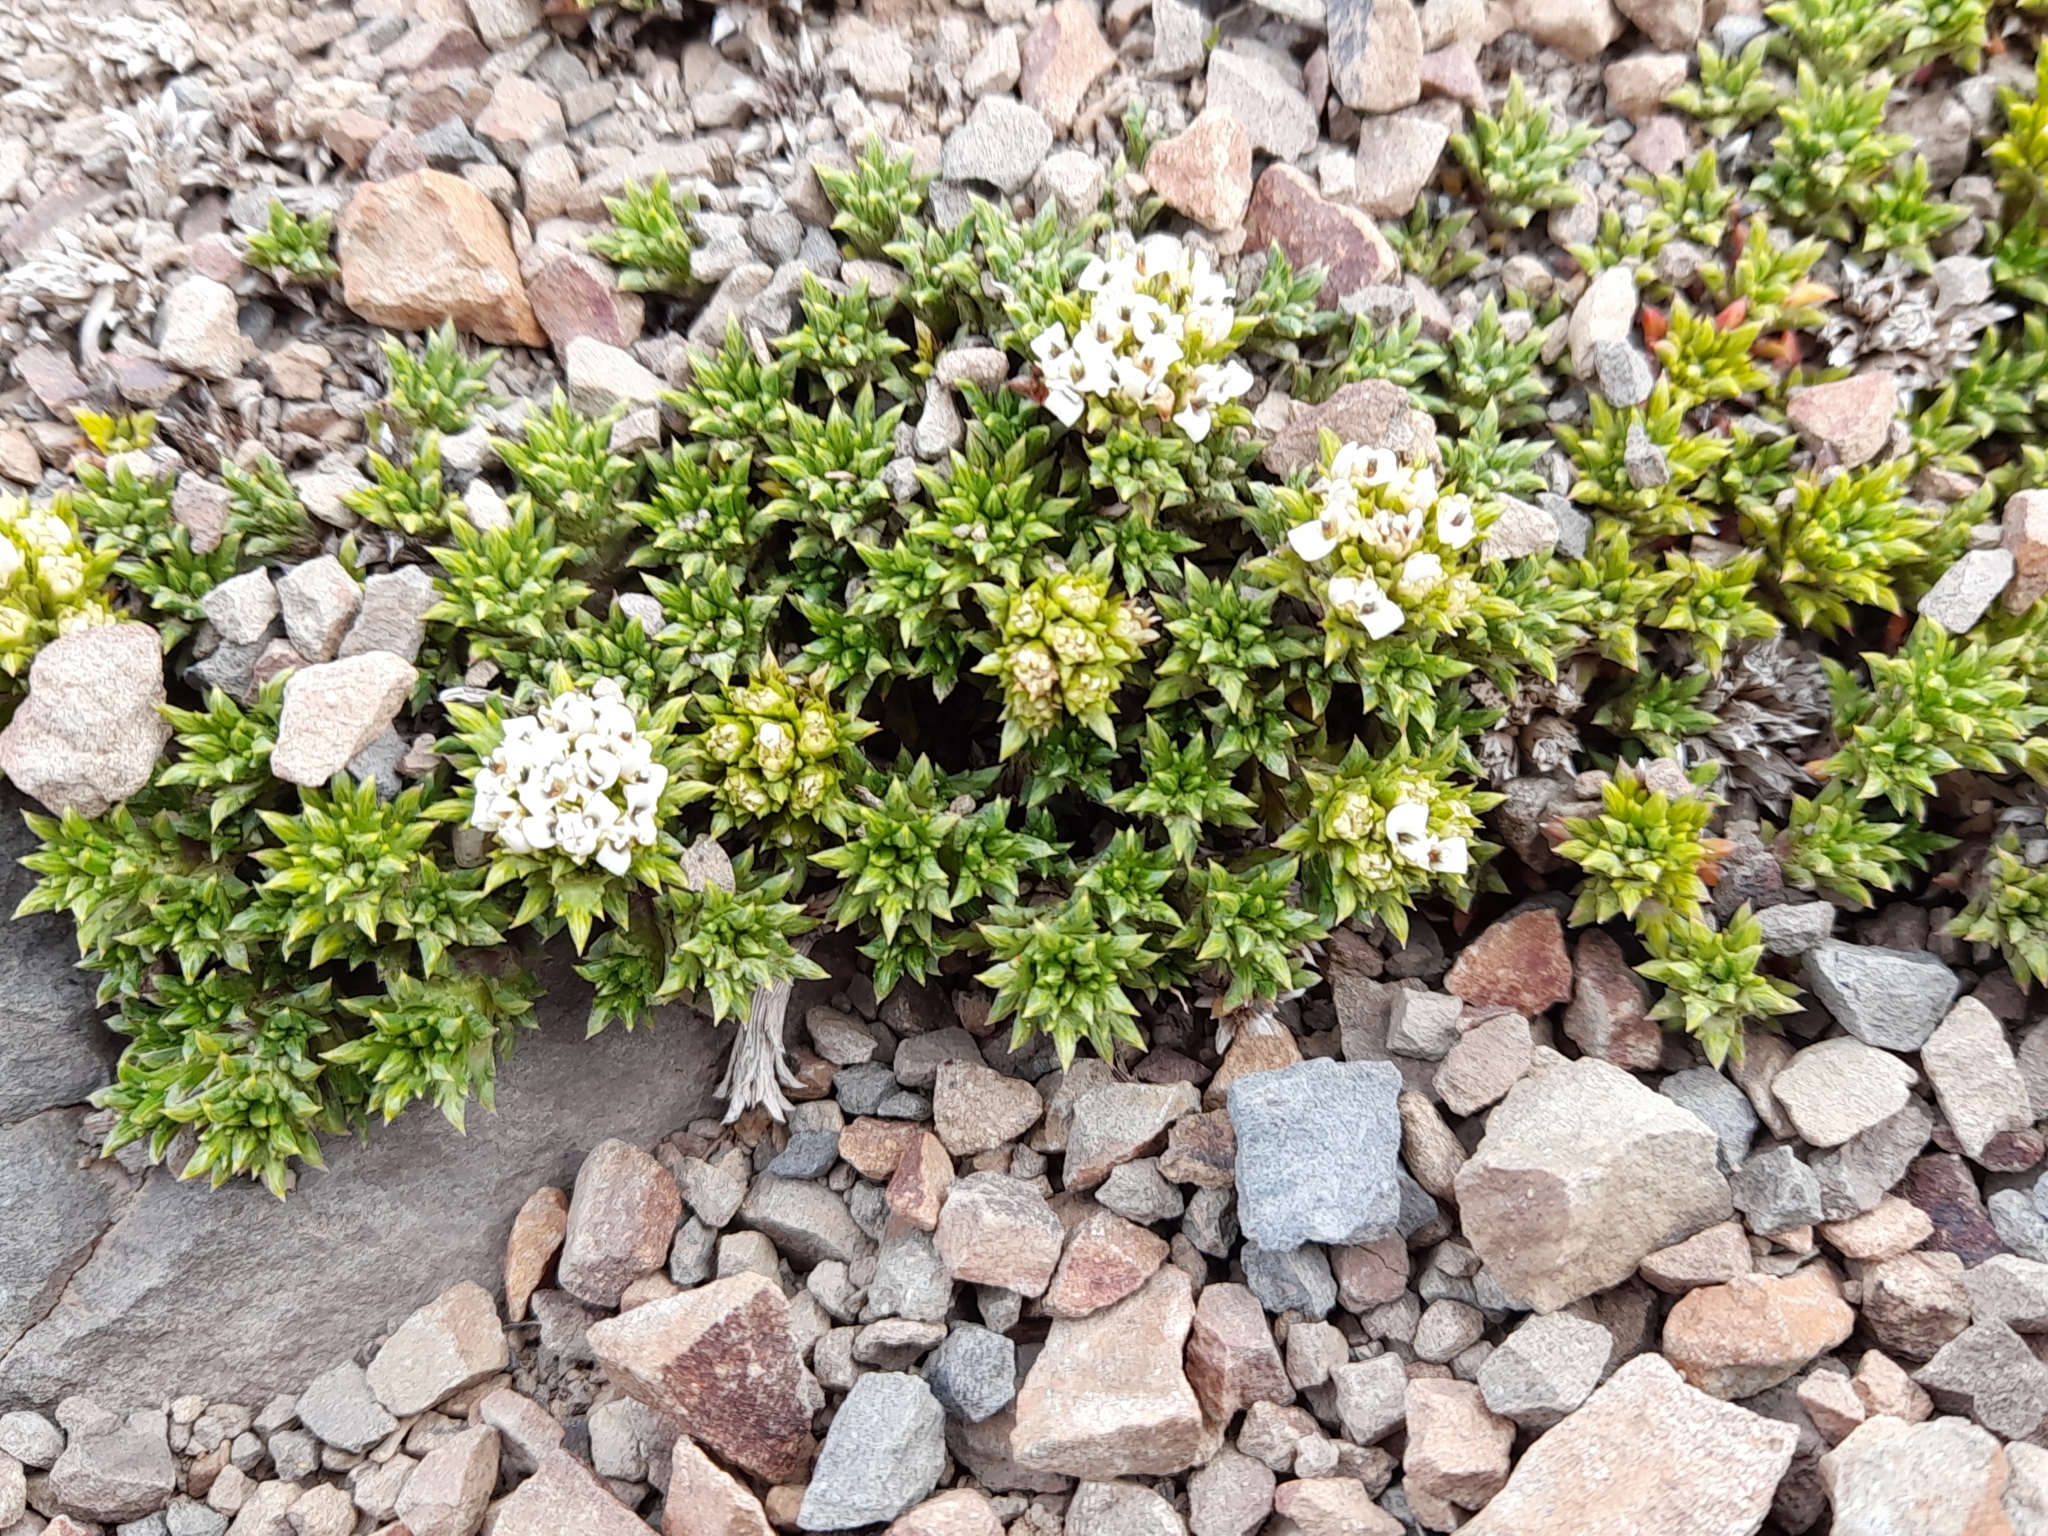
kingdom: Plantae
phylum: Tracheophyta
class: Magnoliopsida
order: Asterales
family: Asteraceae
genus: Nassauvia
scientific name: Nassauvia pygmaea
